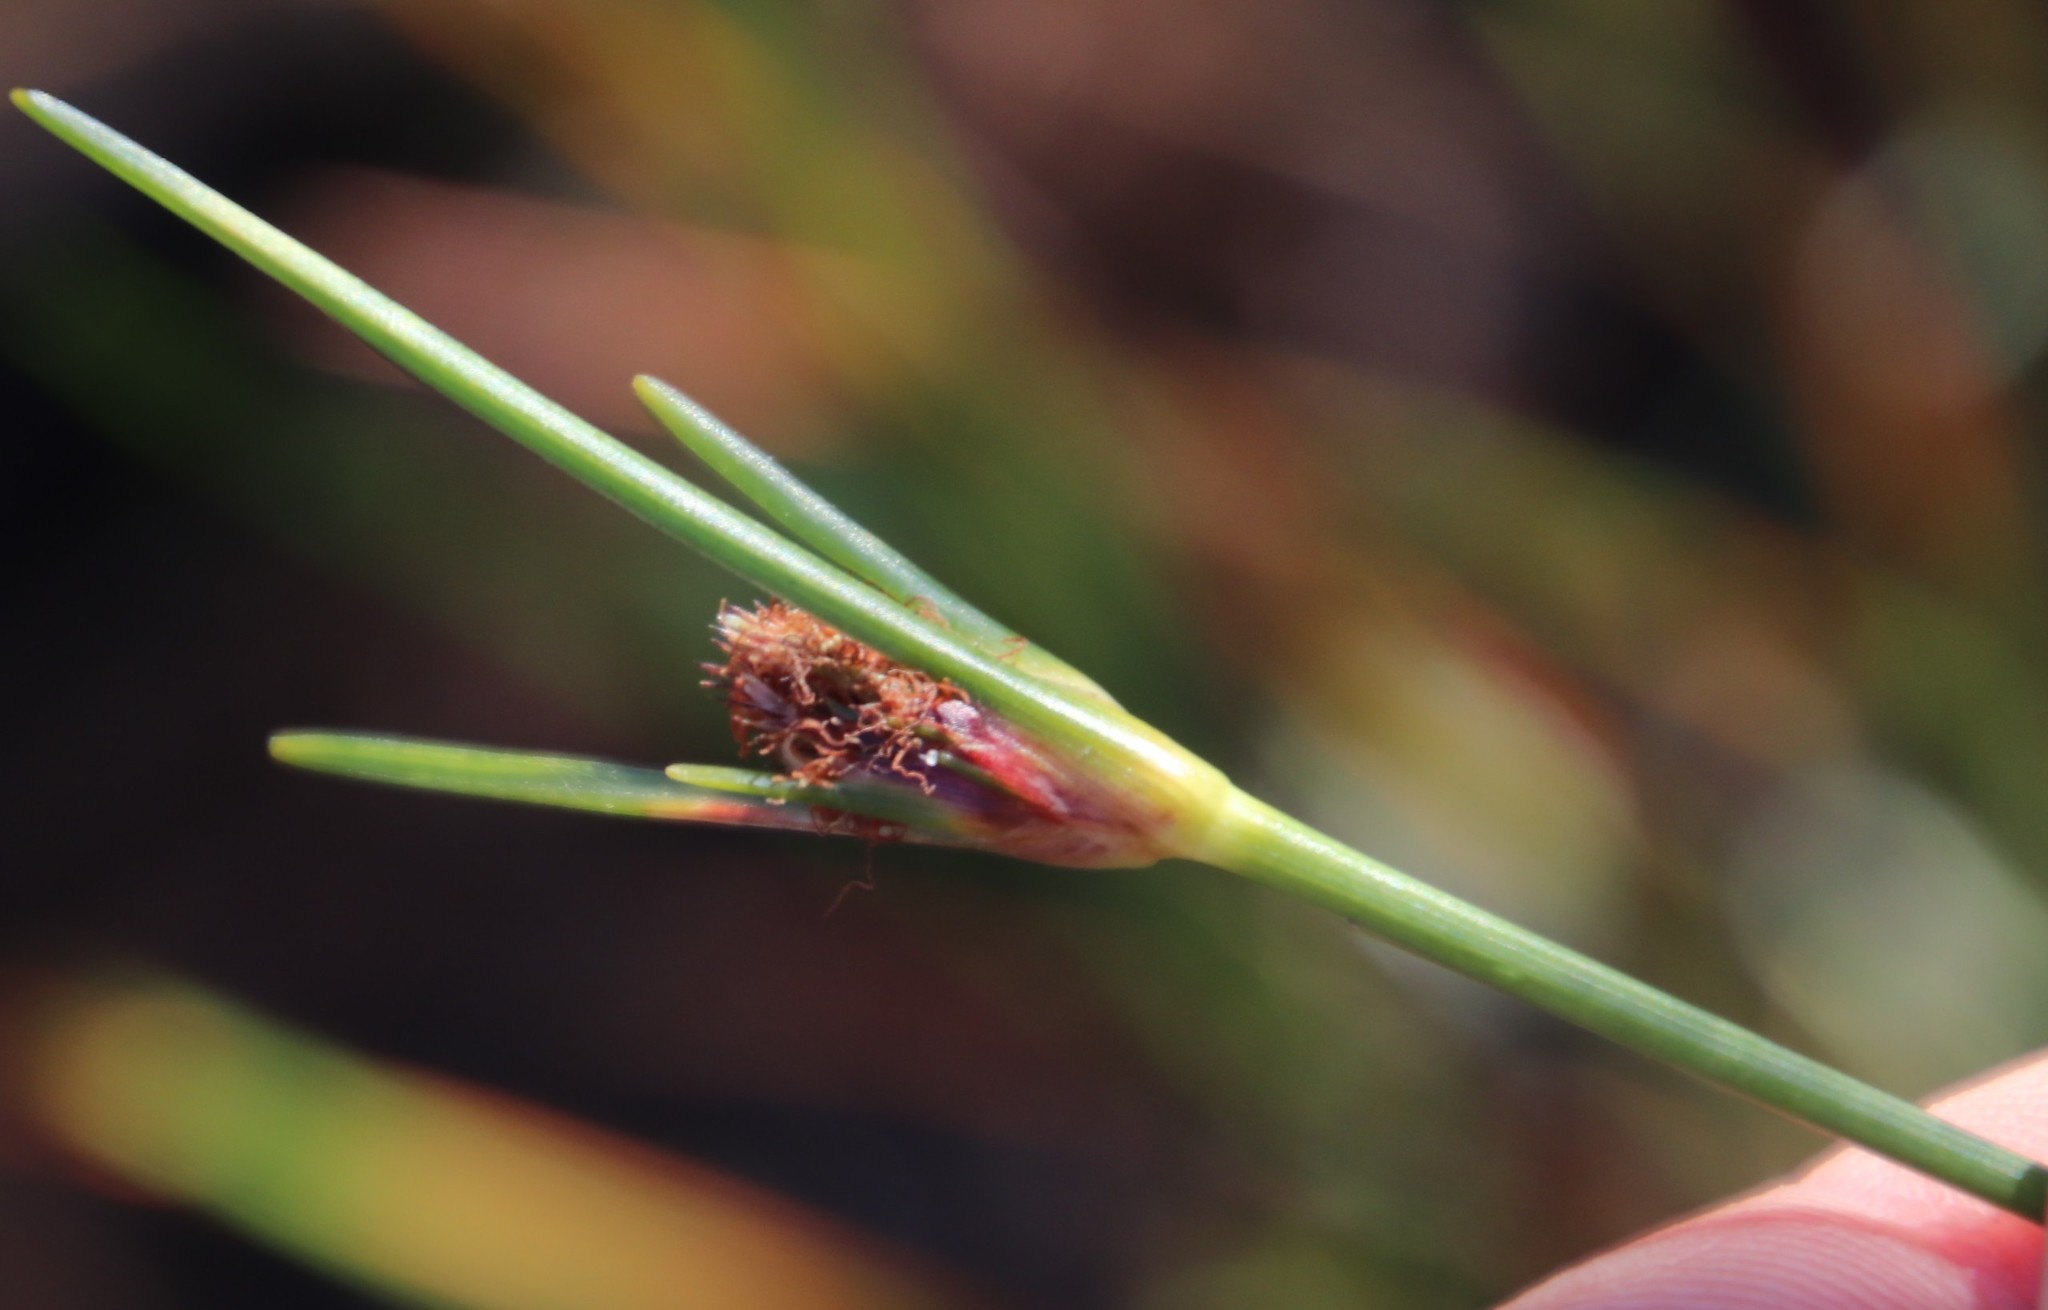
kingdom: Plantae
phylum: Tracheophyta
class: Liliopsida
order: Poales
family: Cyperaceae
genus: Ficinia
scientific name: Ficinia indica
